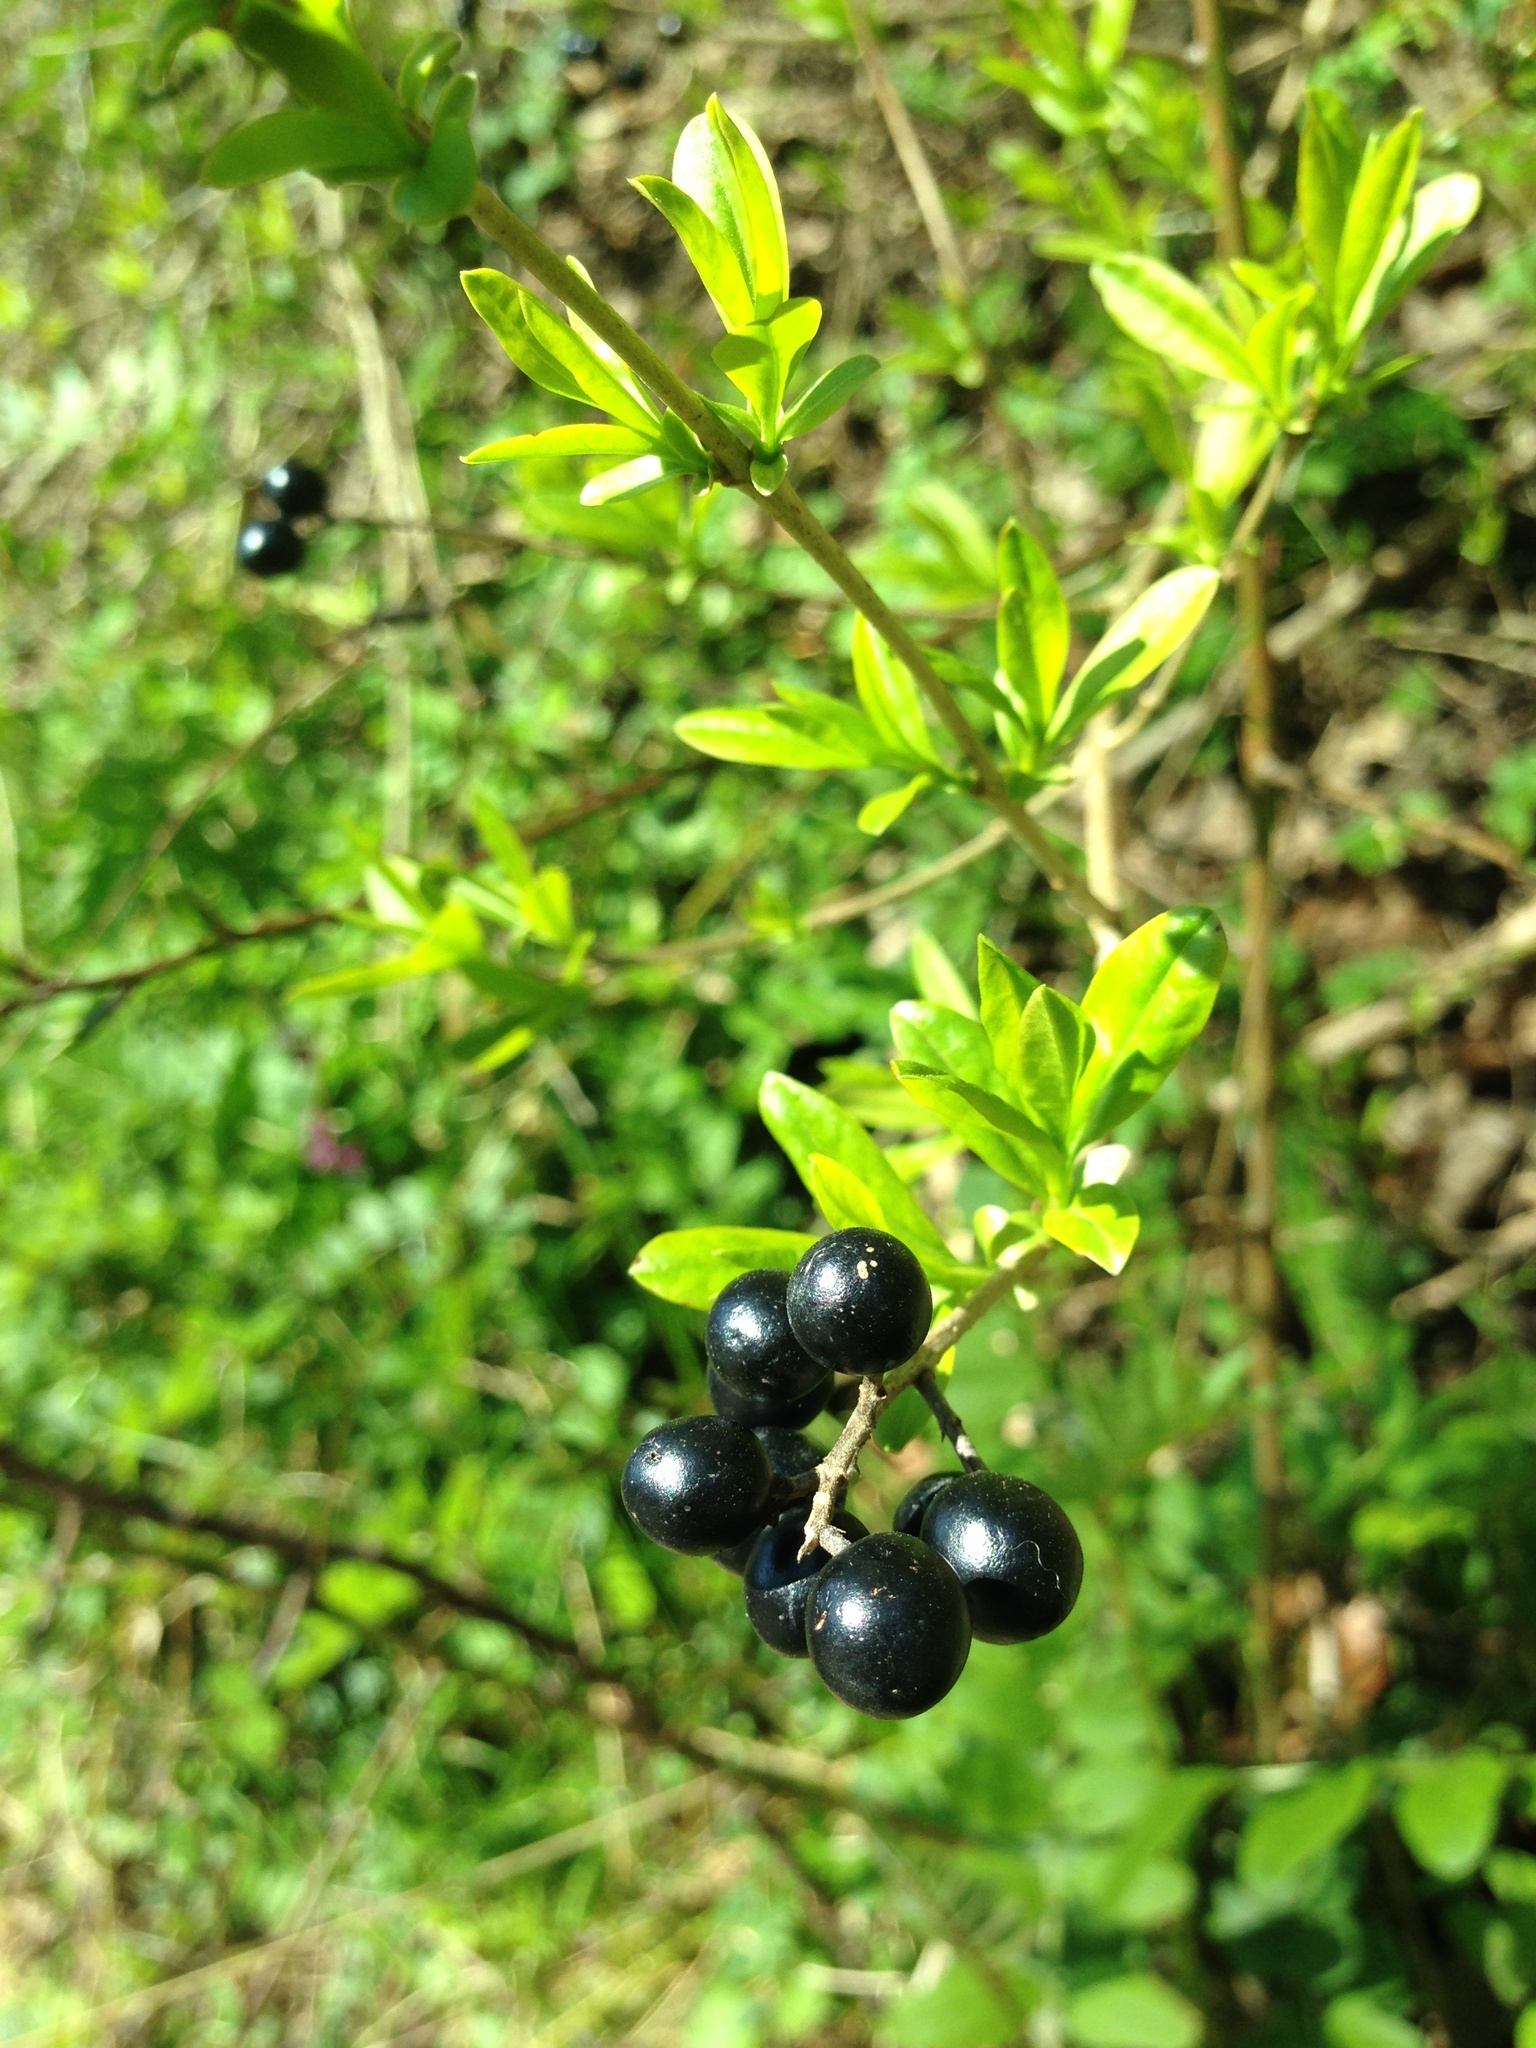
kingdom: Plantae
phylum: Tracheophyta
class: Magnoliopsida
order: Lamiales
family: Oleaceae
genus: Ligustrum
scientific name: Ligustrum vulgare
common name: Wild privet
